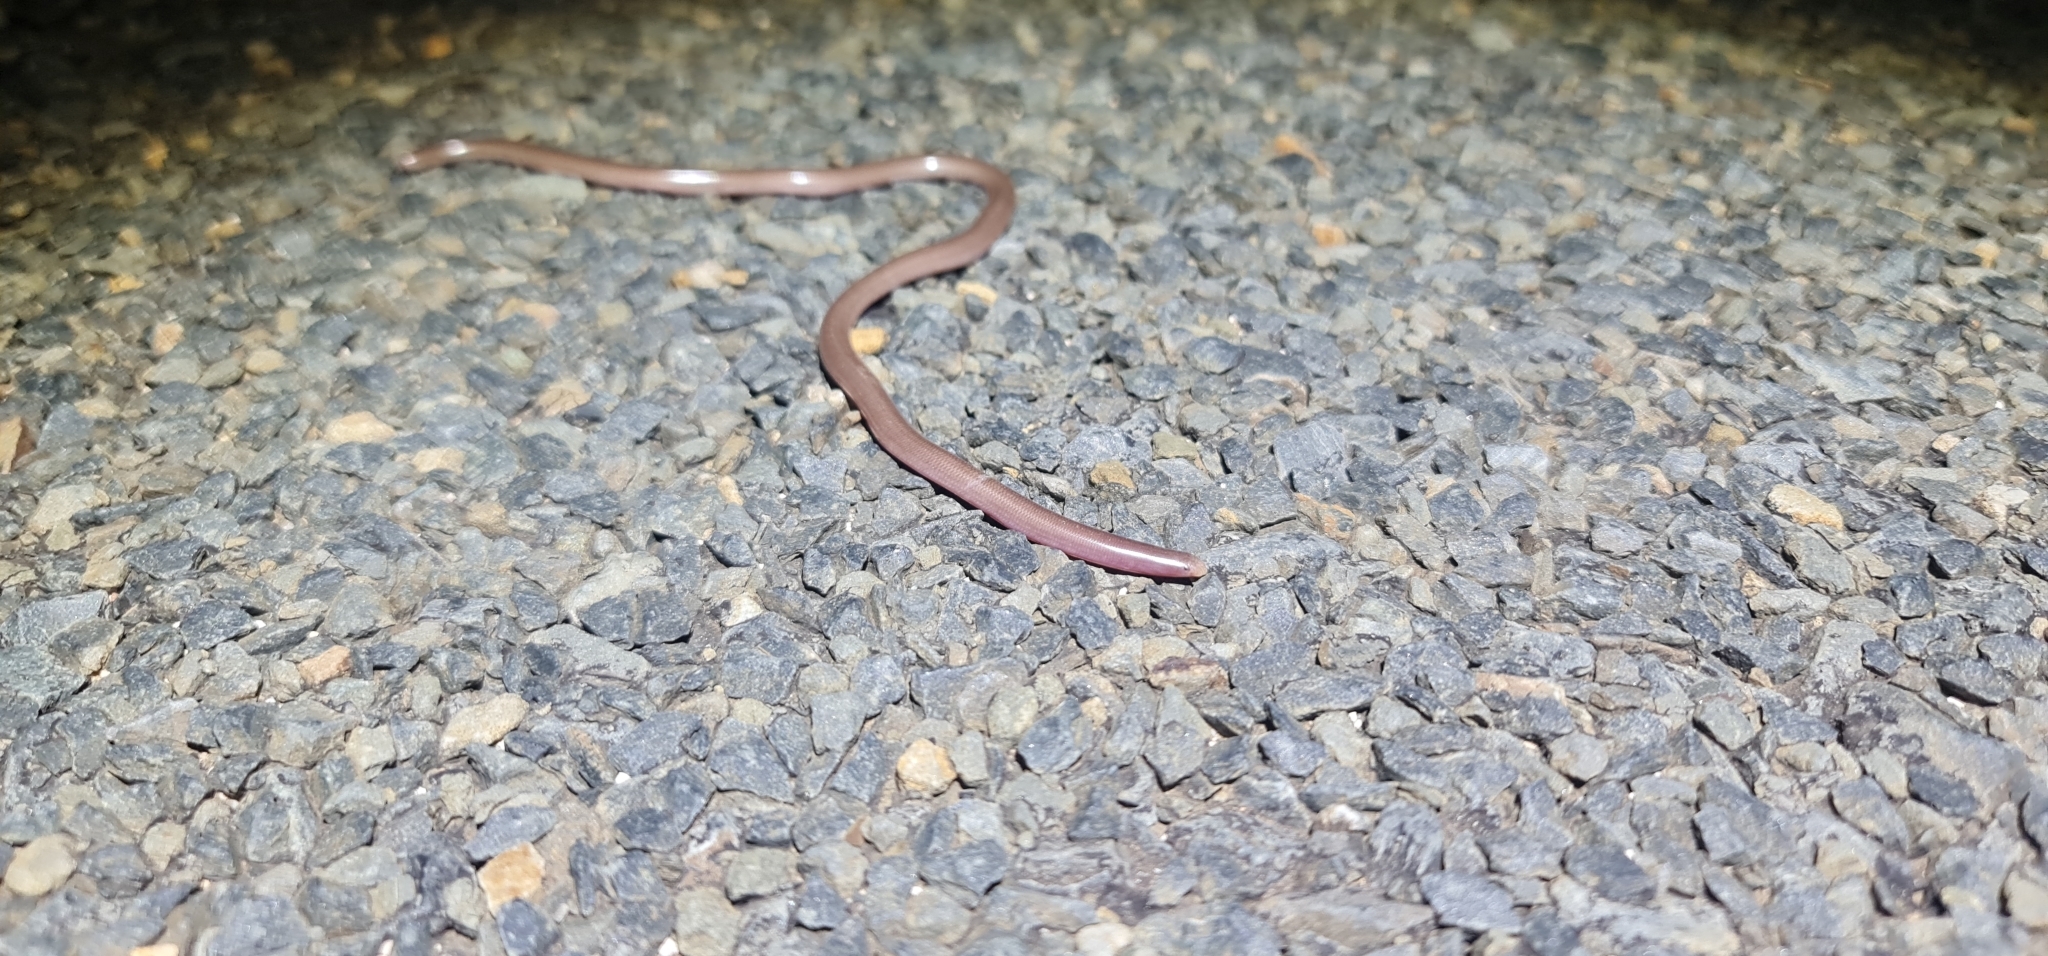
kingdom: Animalia
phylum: Chordata
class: Squamata
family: Typhlopidae
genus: Anilios
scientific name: Anilios bituberculatus
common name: Prong-snouted blind snake
